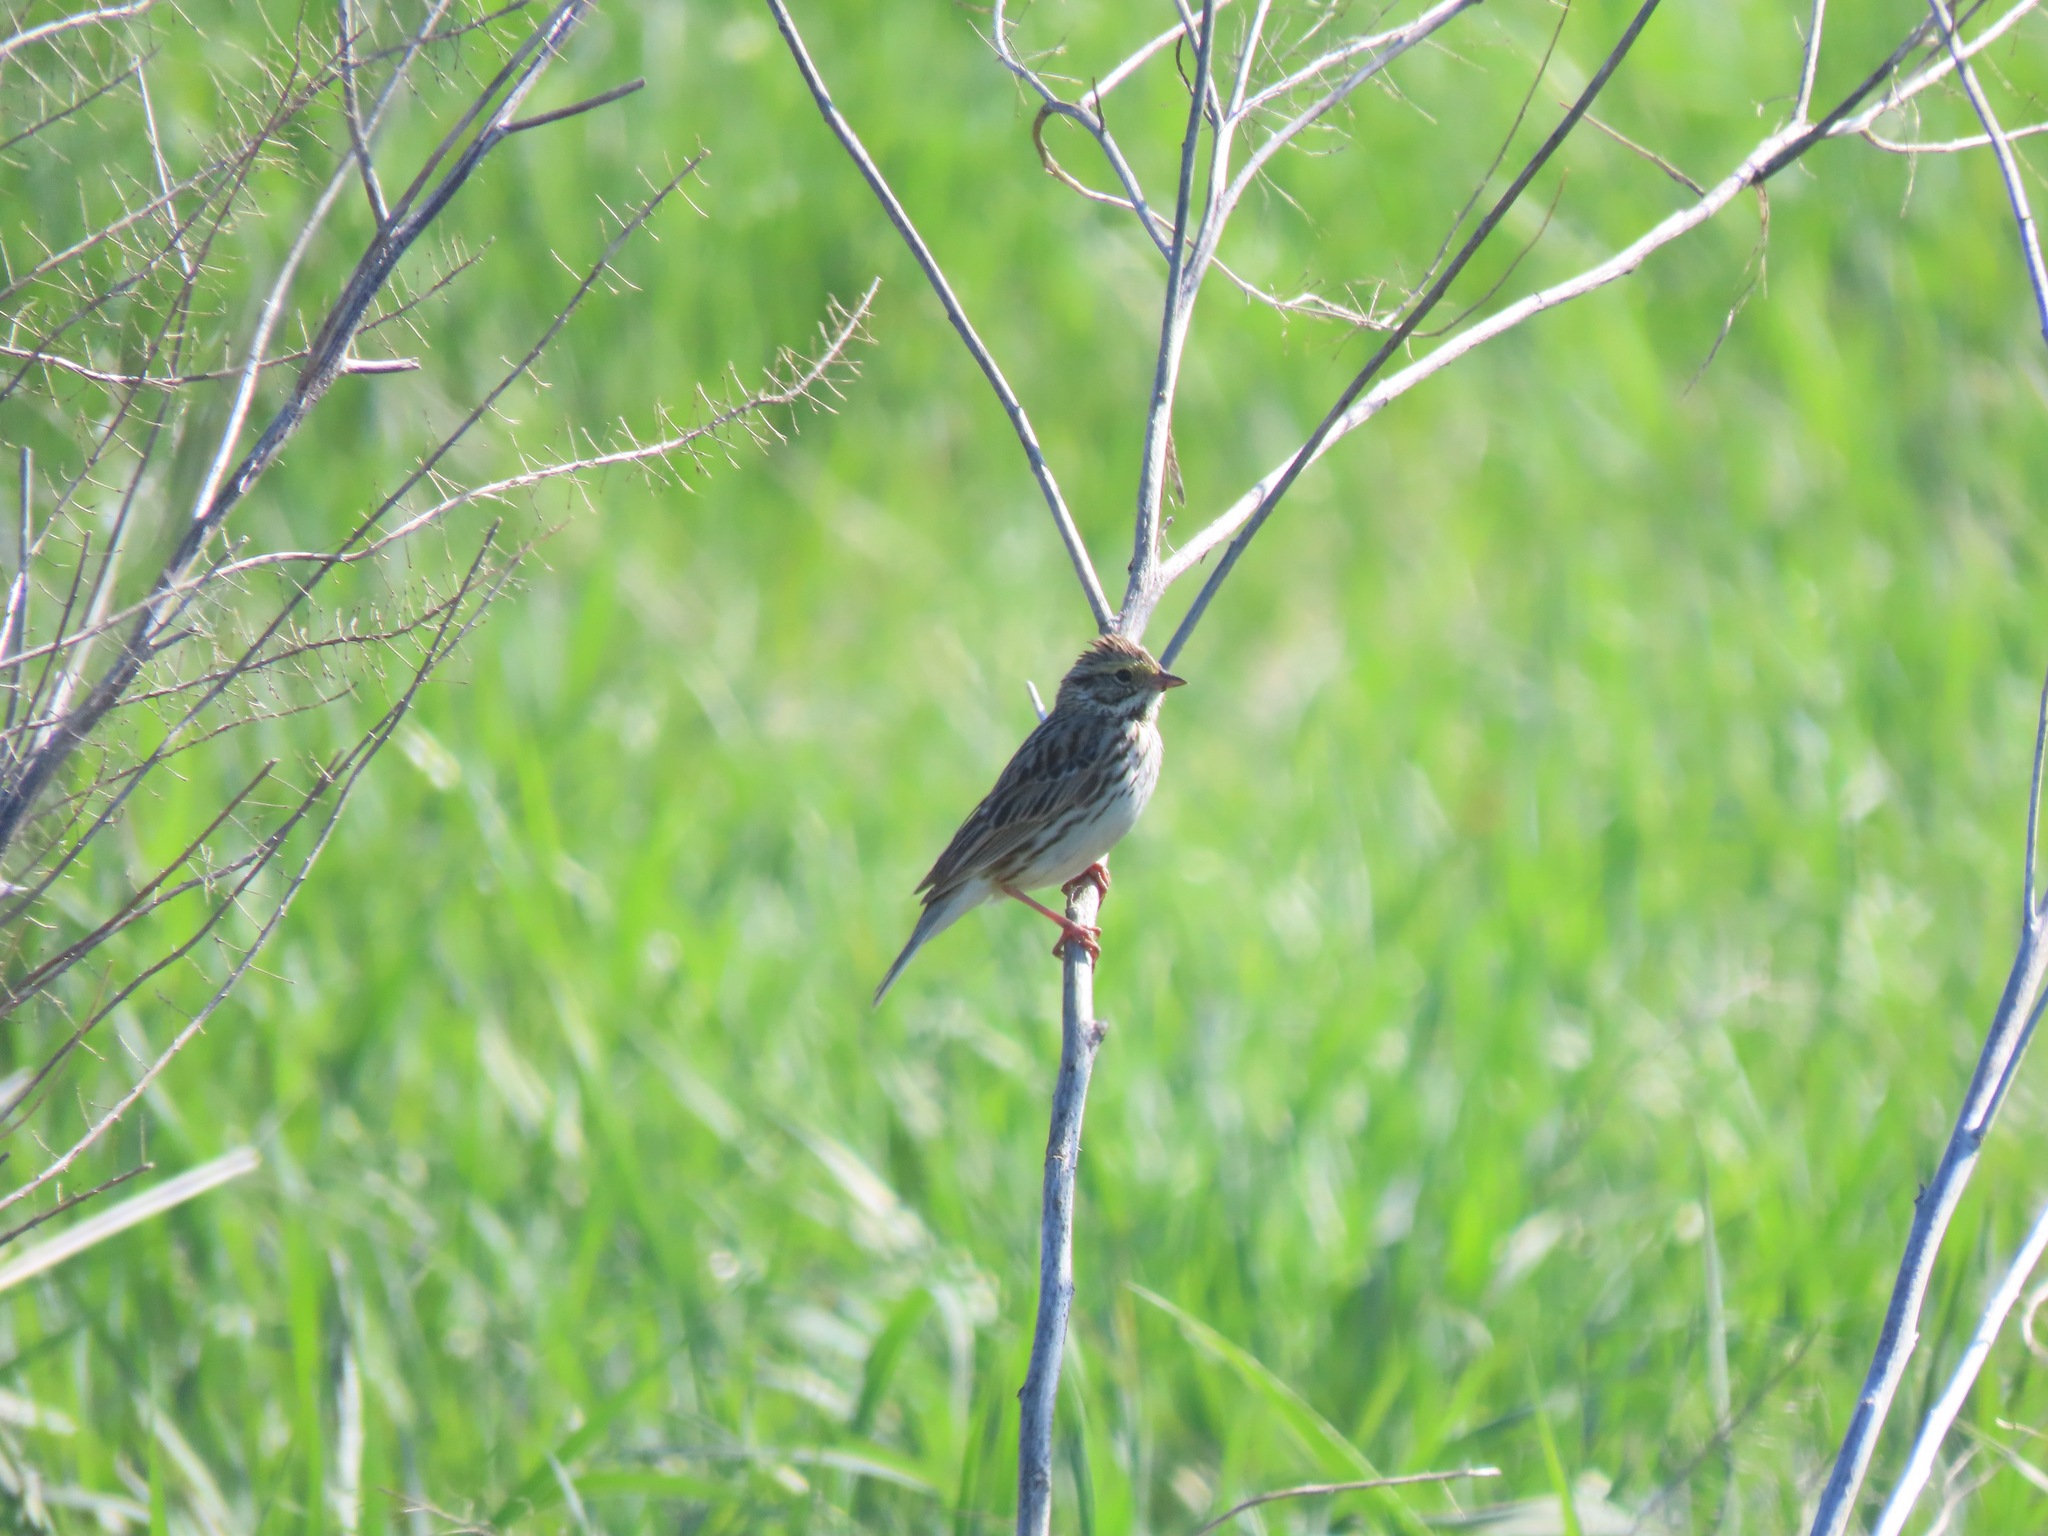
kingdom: Animalia
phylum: Chordata
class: Aves
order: Passeriformes
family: Passerellidae
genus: Passerculus
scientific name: Passerculus sandwichensis
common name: Savannah sparrow
